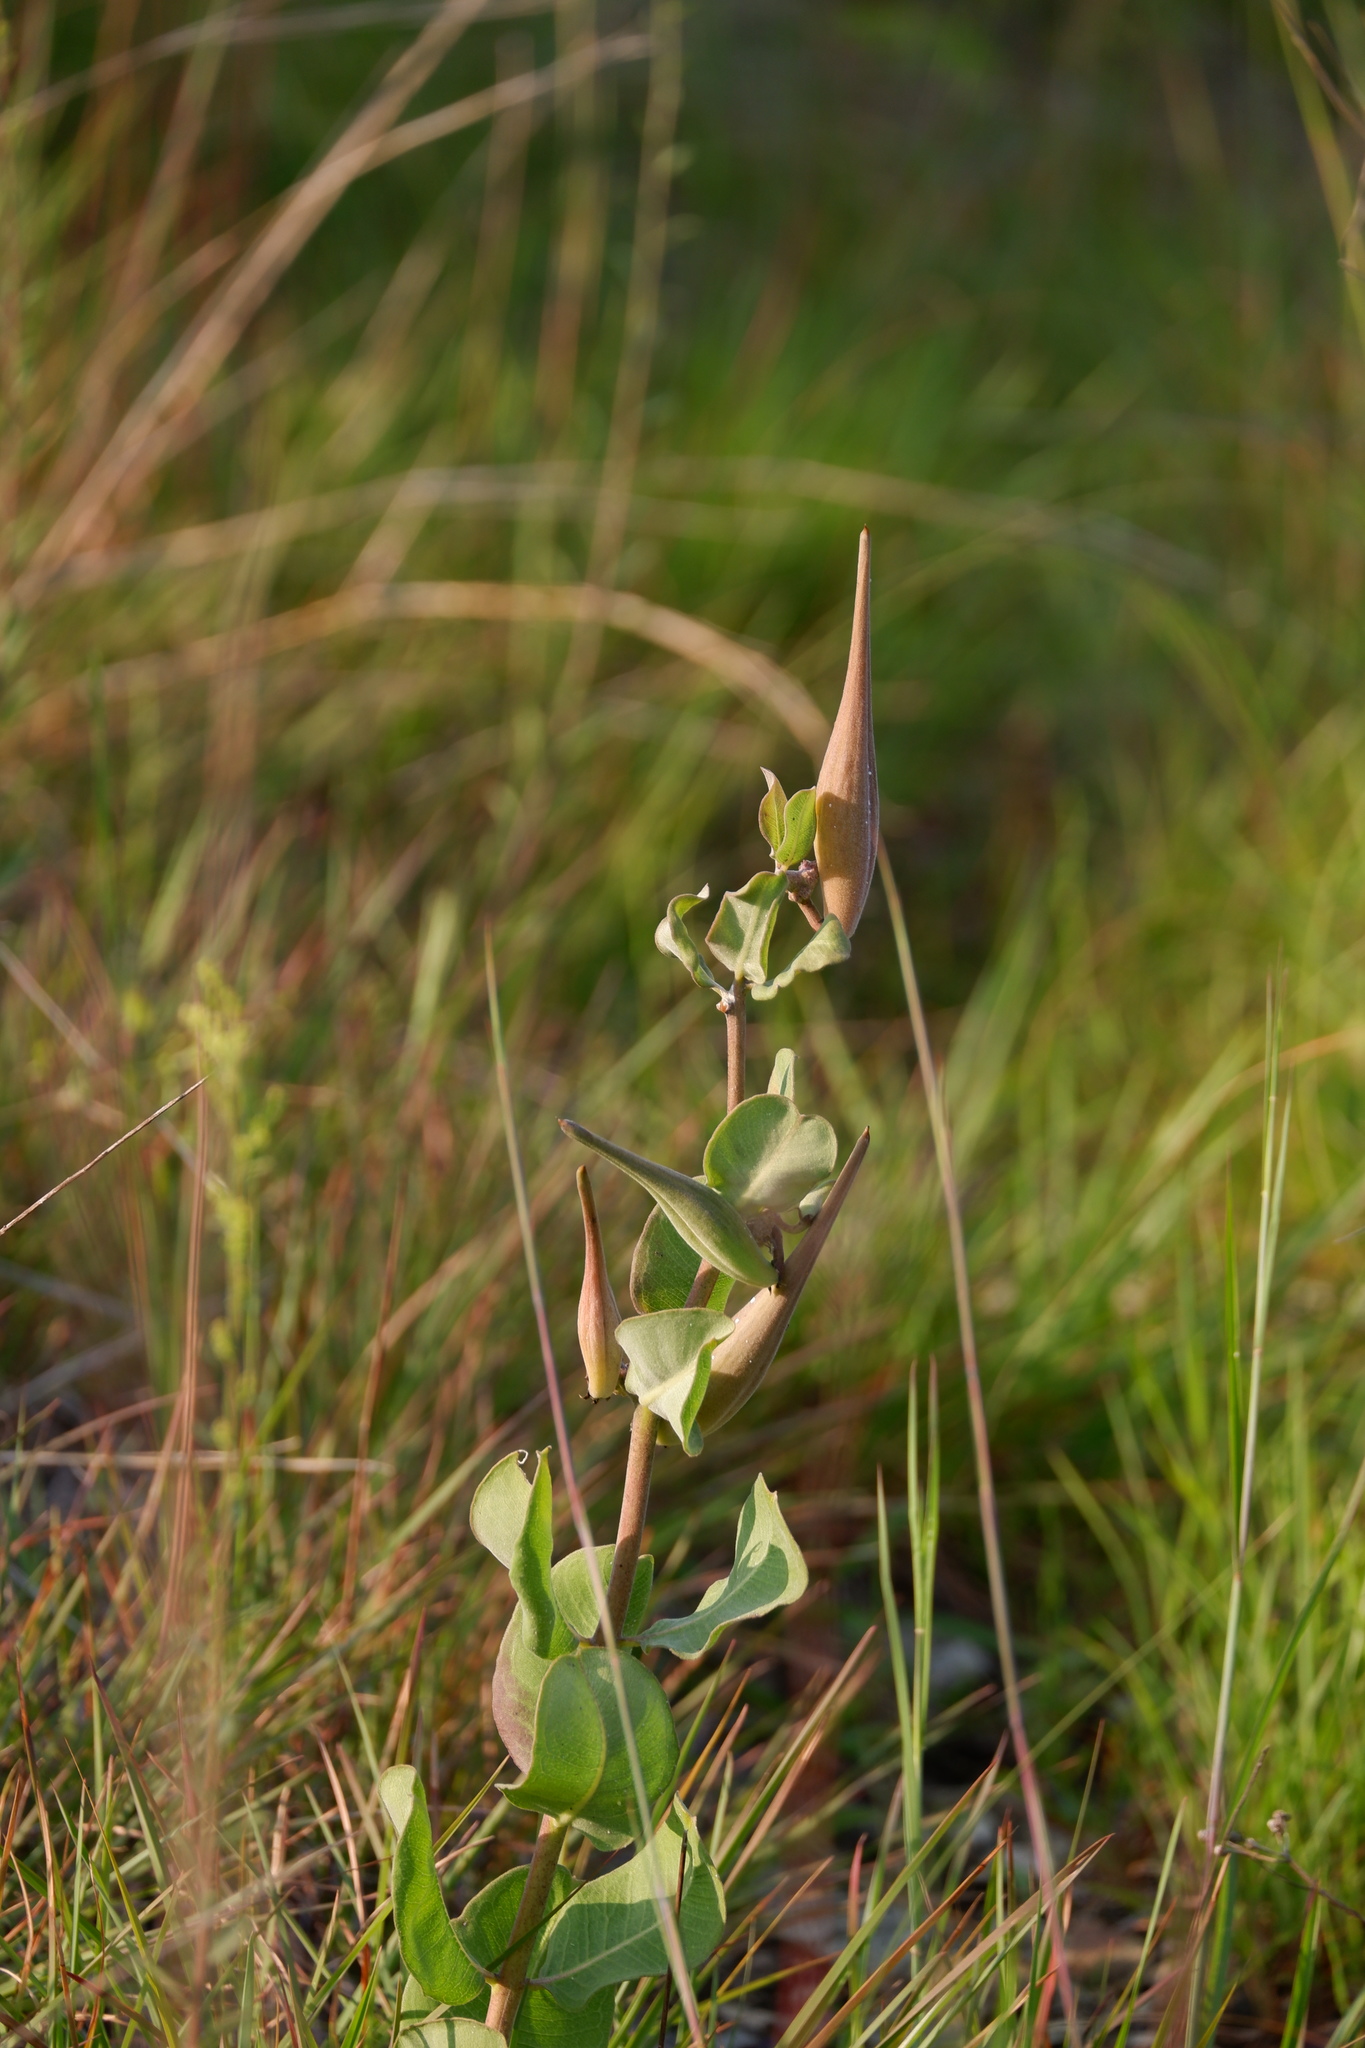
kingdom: Plantae
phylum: Tracheophyta
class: Magnoliopsida
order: Gentianales
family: Apocynaceae
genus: Asclepias
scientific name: Asclepias viridiflora
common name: Green comet milkweed
